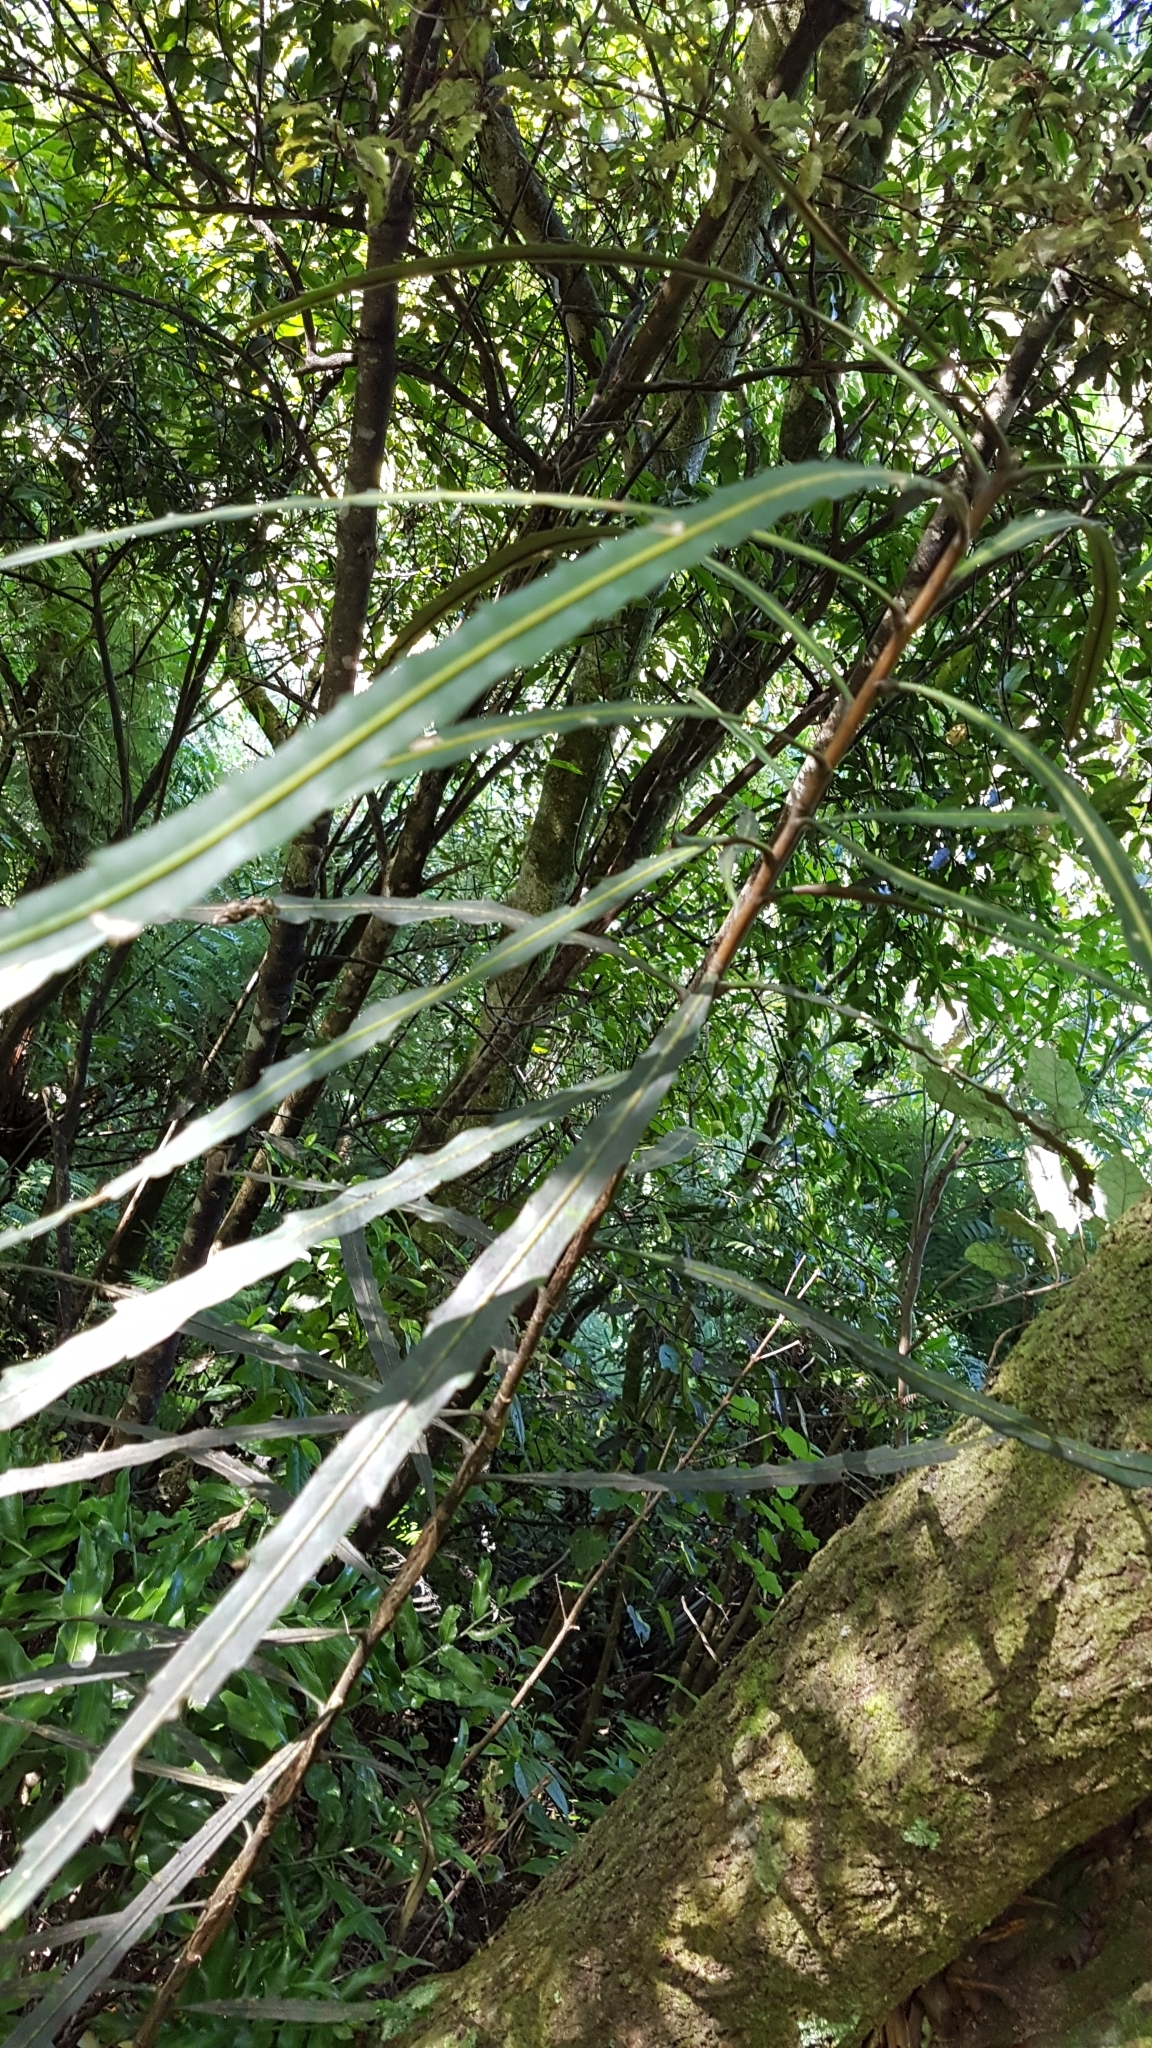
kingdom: Plantae
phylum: Tracheophyta
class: Magnoliopsida
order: Apiales
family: Araliaceae
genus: Pseudopanax
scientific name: Pseudopanax crassifolius
